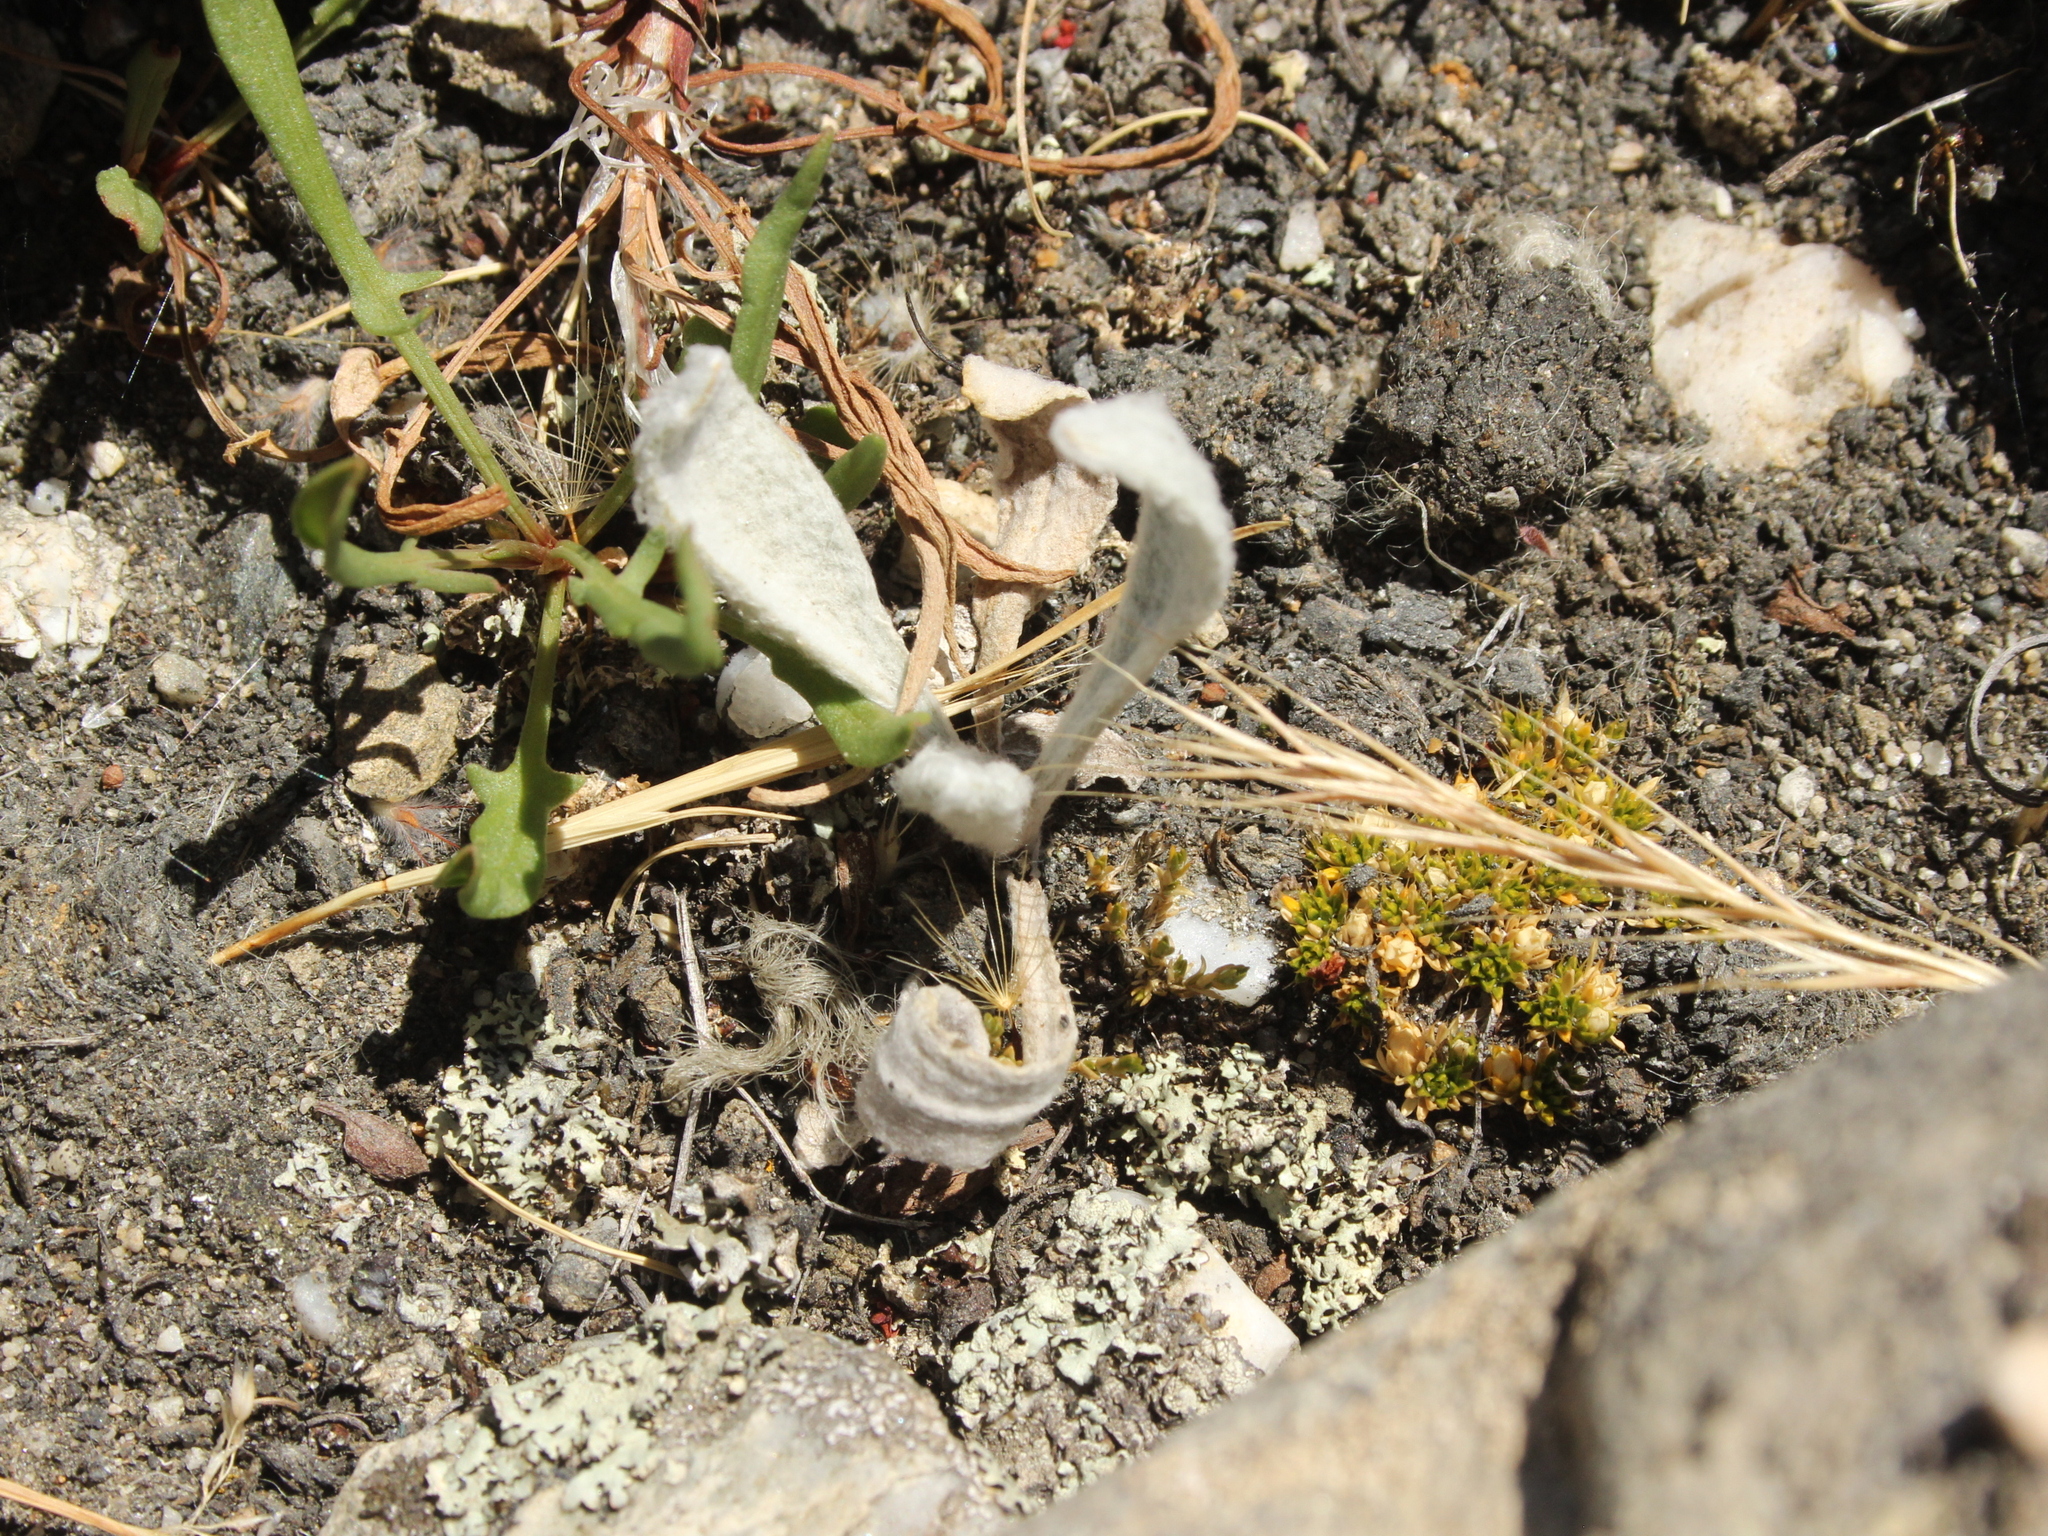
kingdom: Plantae
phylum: Tracheophyta
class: Magnoliopsida
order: Asterales
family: Asteraceae
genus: Craspedia
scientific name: Craspedia
